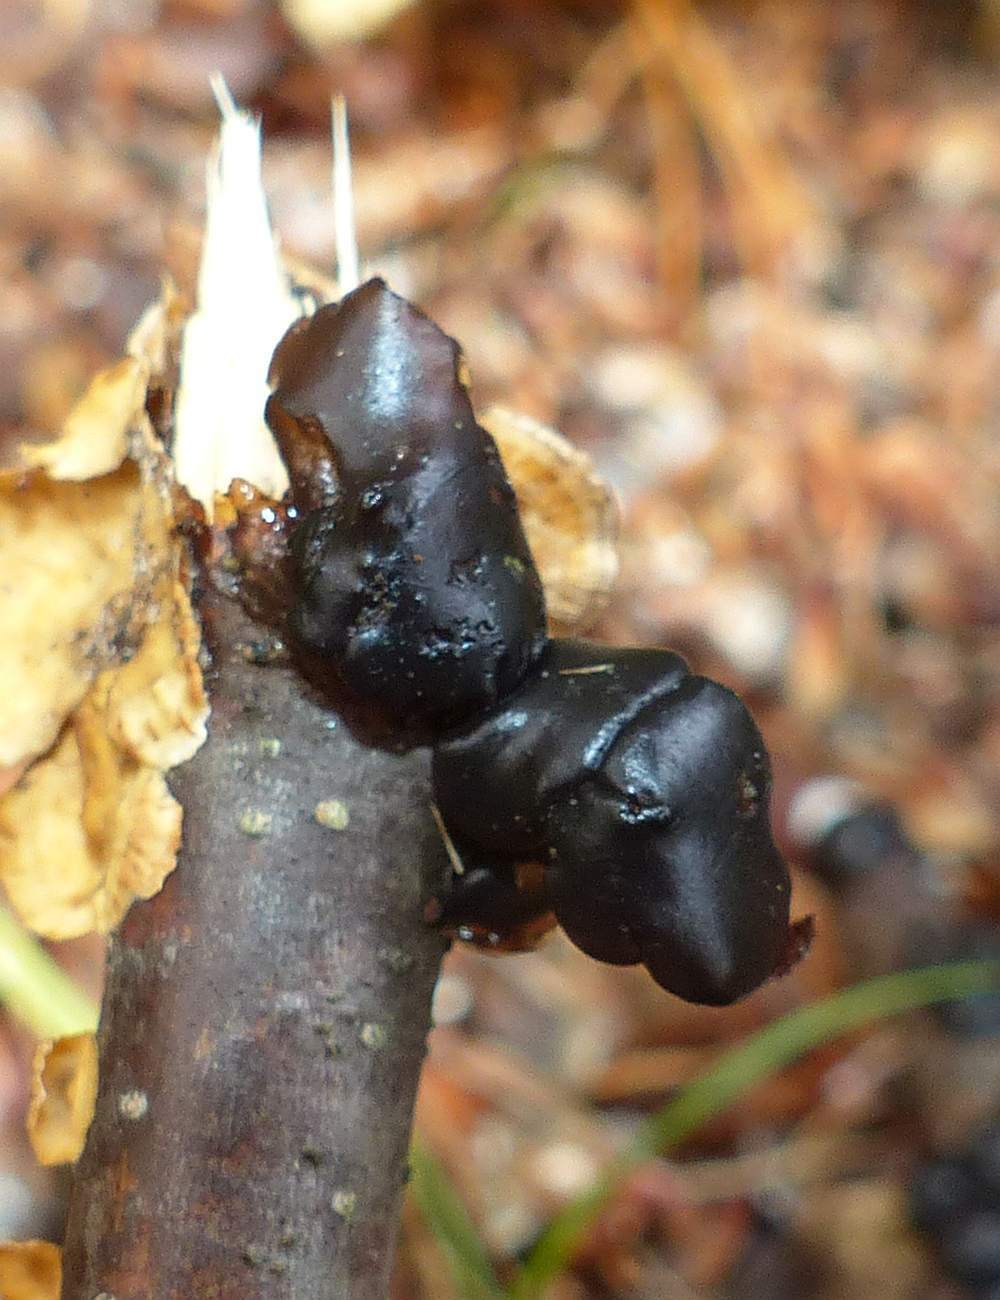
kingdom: Fungi
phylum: Basidiomycota
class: Agaricomycetes
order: Auriculariales
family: Auriculariaceae
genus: Exidia
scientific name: Exidia
